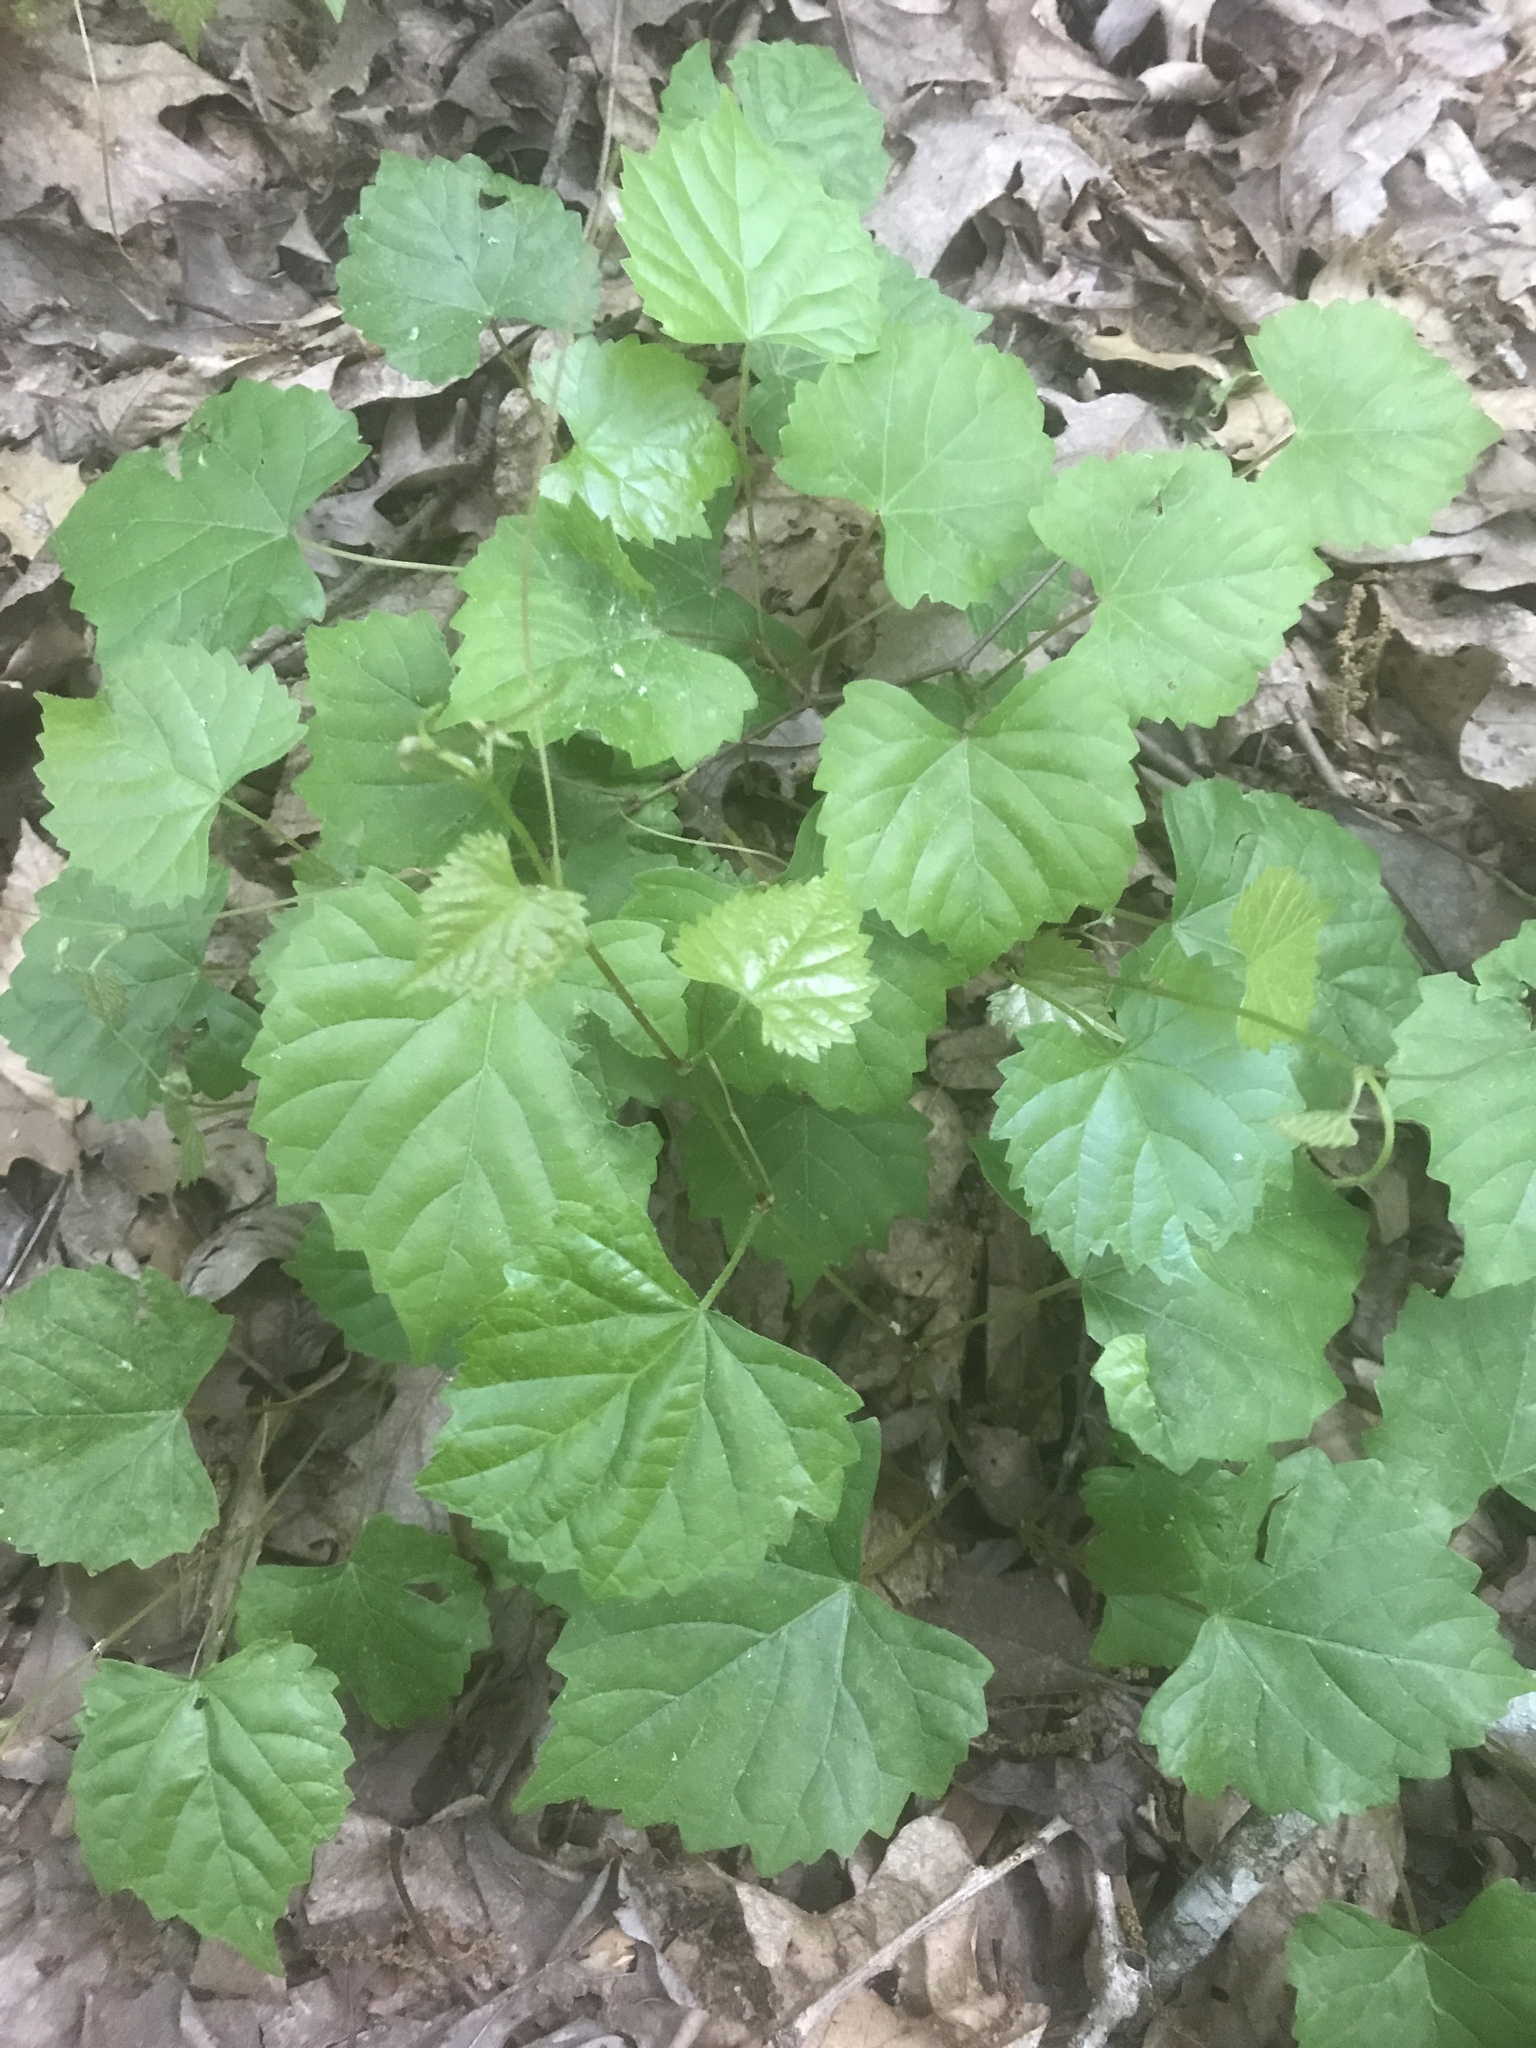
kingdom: Plantae
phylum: Tracheophyta
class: Magnoliopsida
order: Vitales
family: Vitaceae
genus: Vitis
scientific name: Vitis rotundifolia
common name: Muscadine grape
